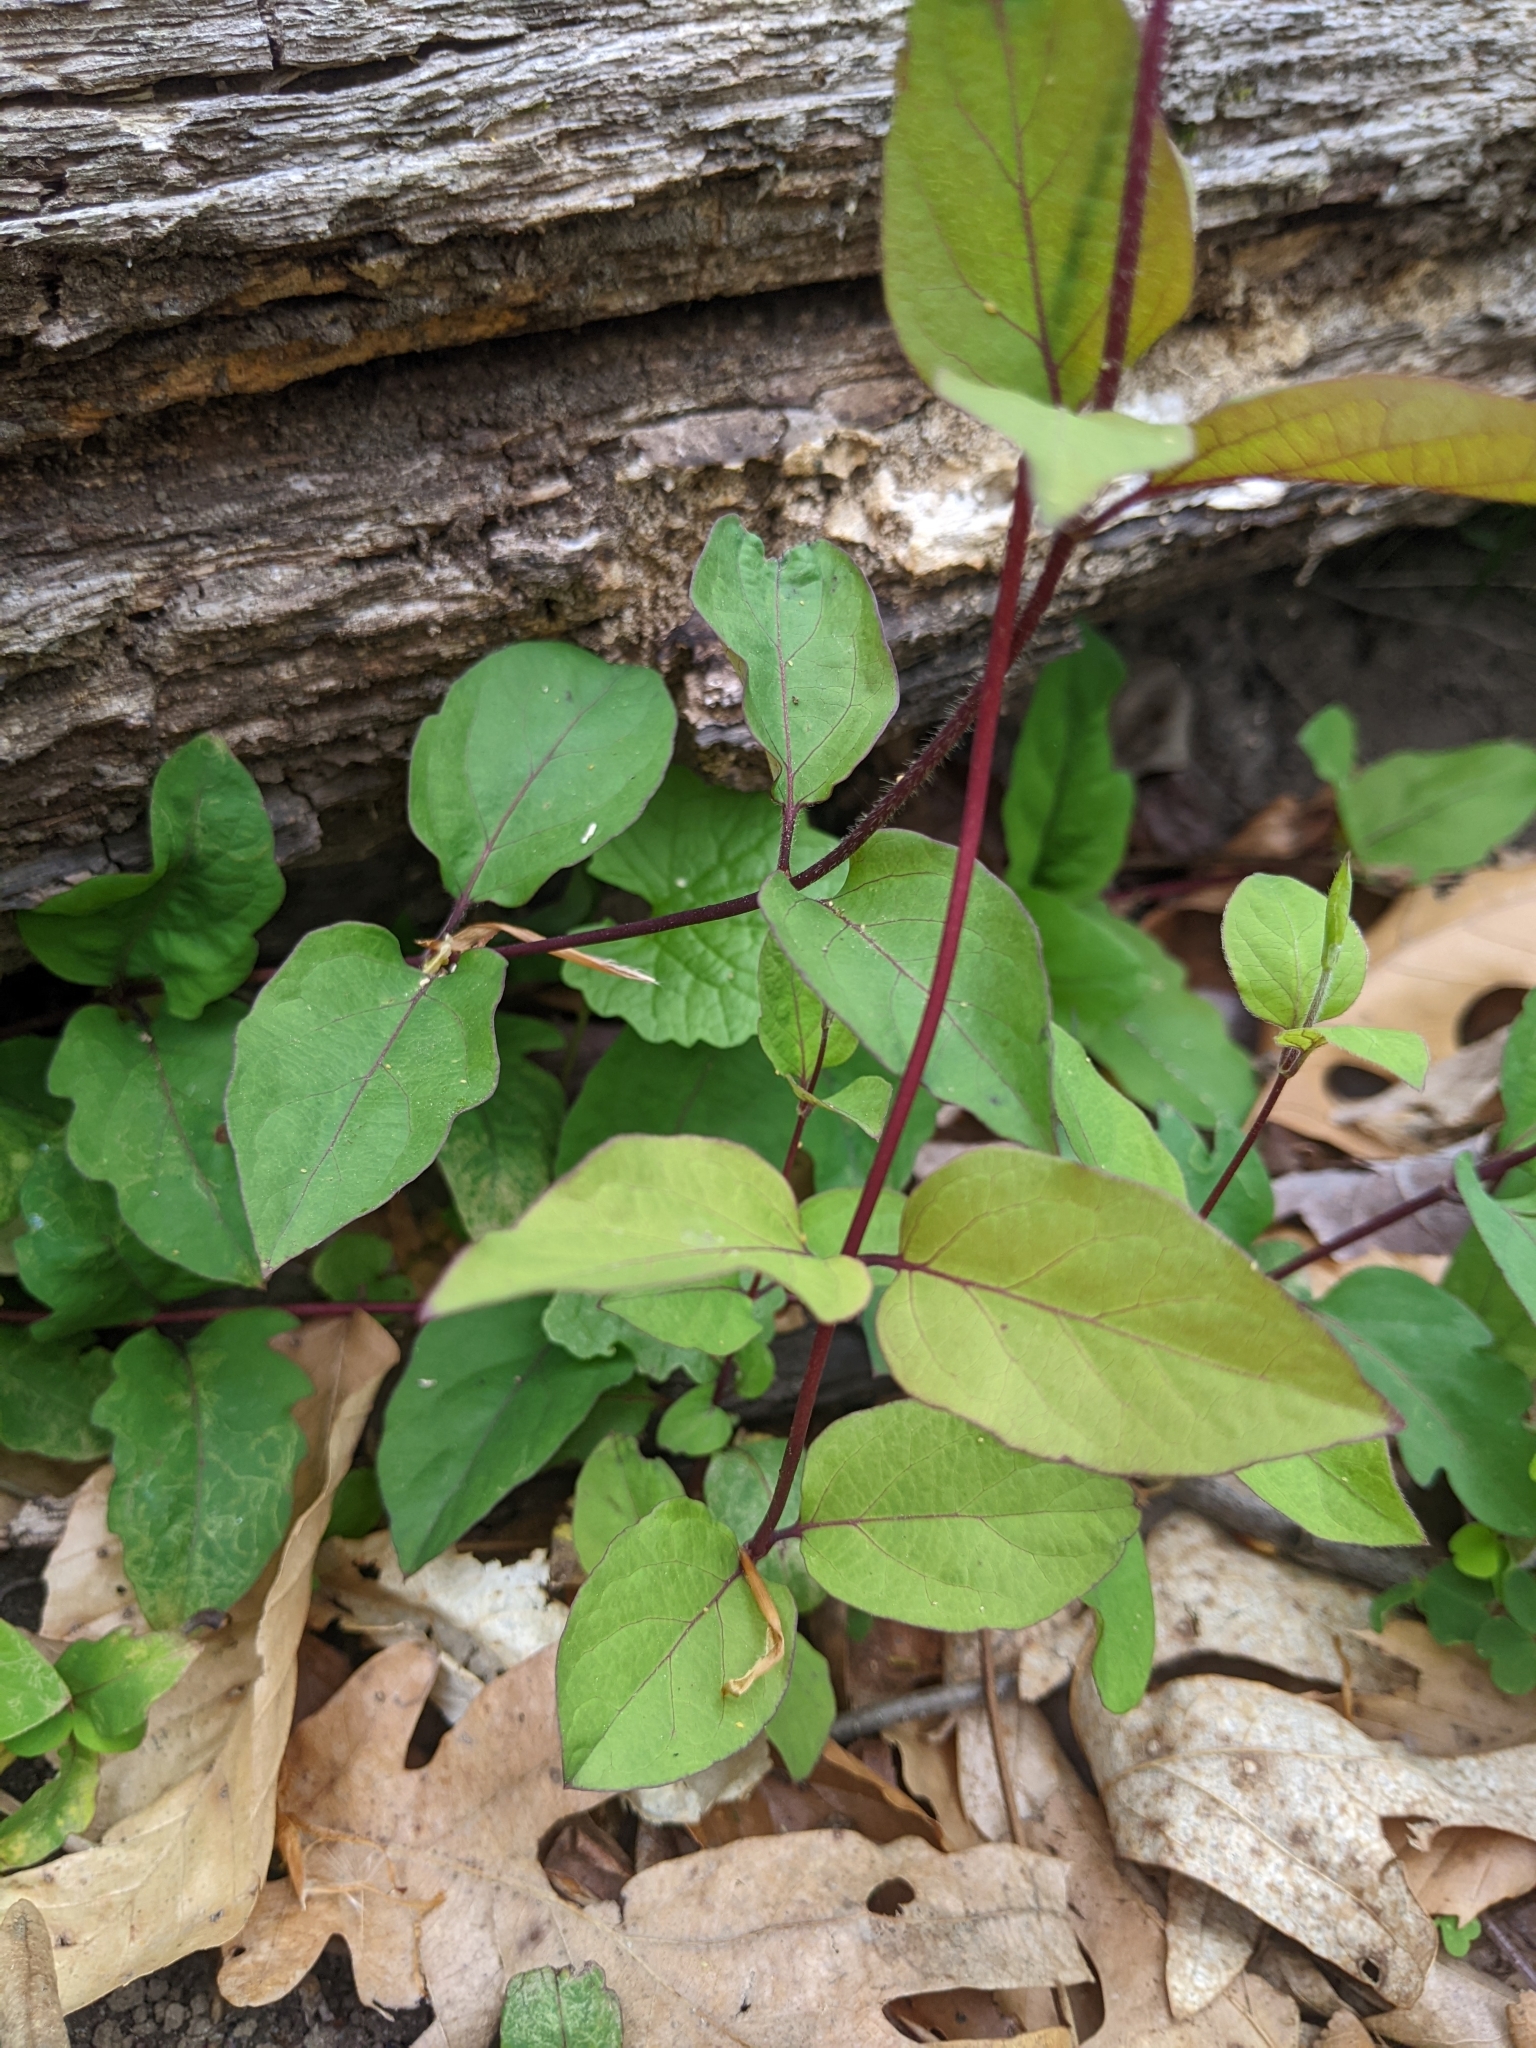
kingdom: Plantae
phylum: Tracheophyta
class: Magnoliopsida
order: Dipsacales
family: Caprifoliaceae
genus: Lonicera
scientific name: Lonicera japonica
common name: Japanese honeysuckle
